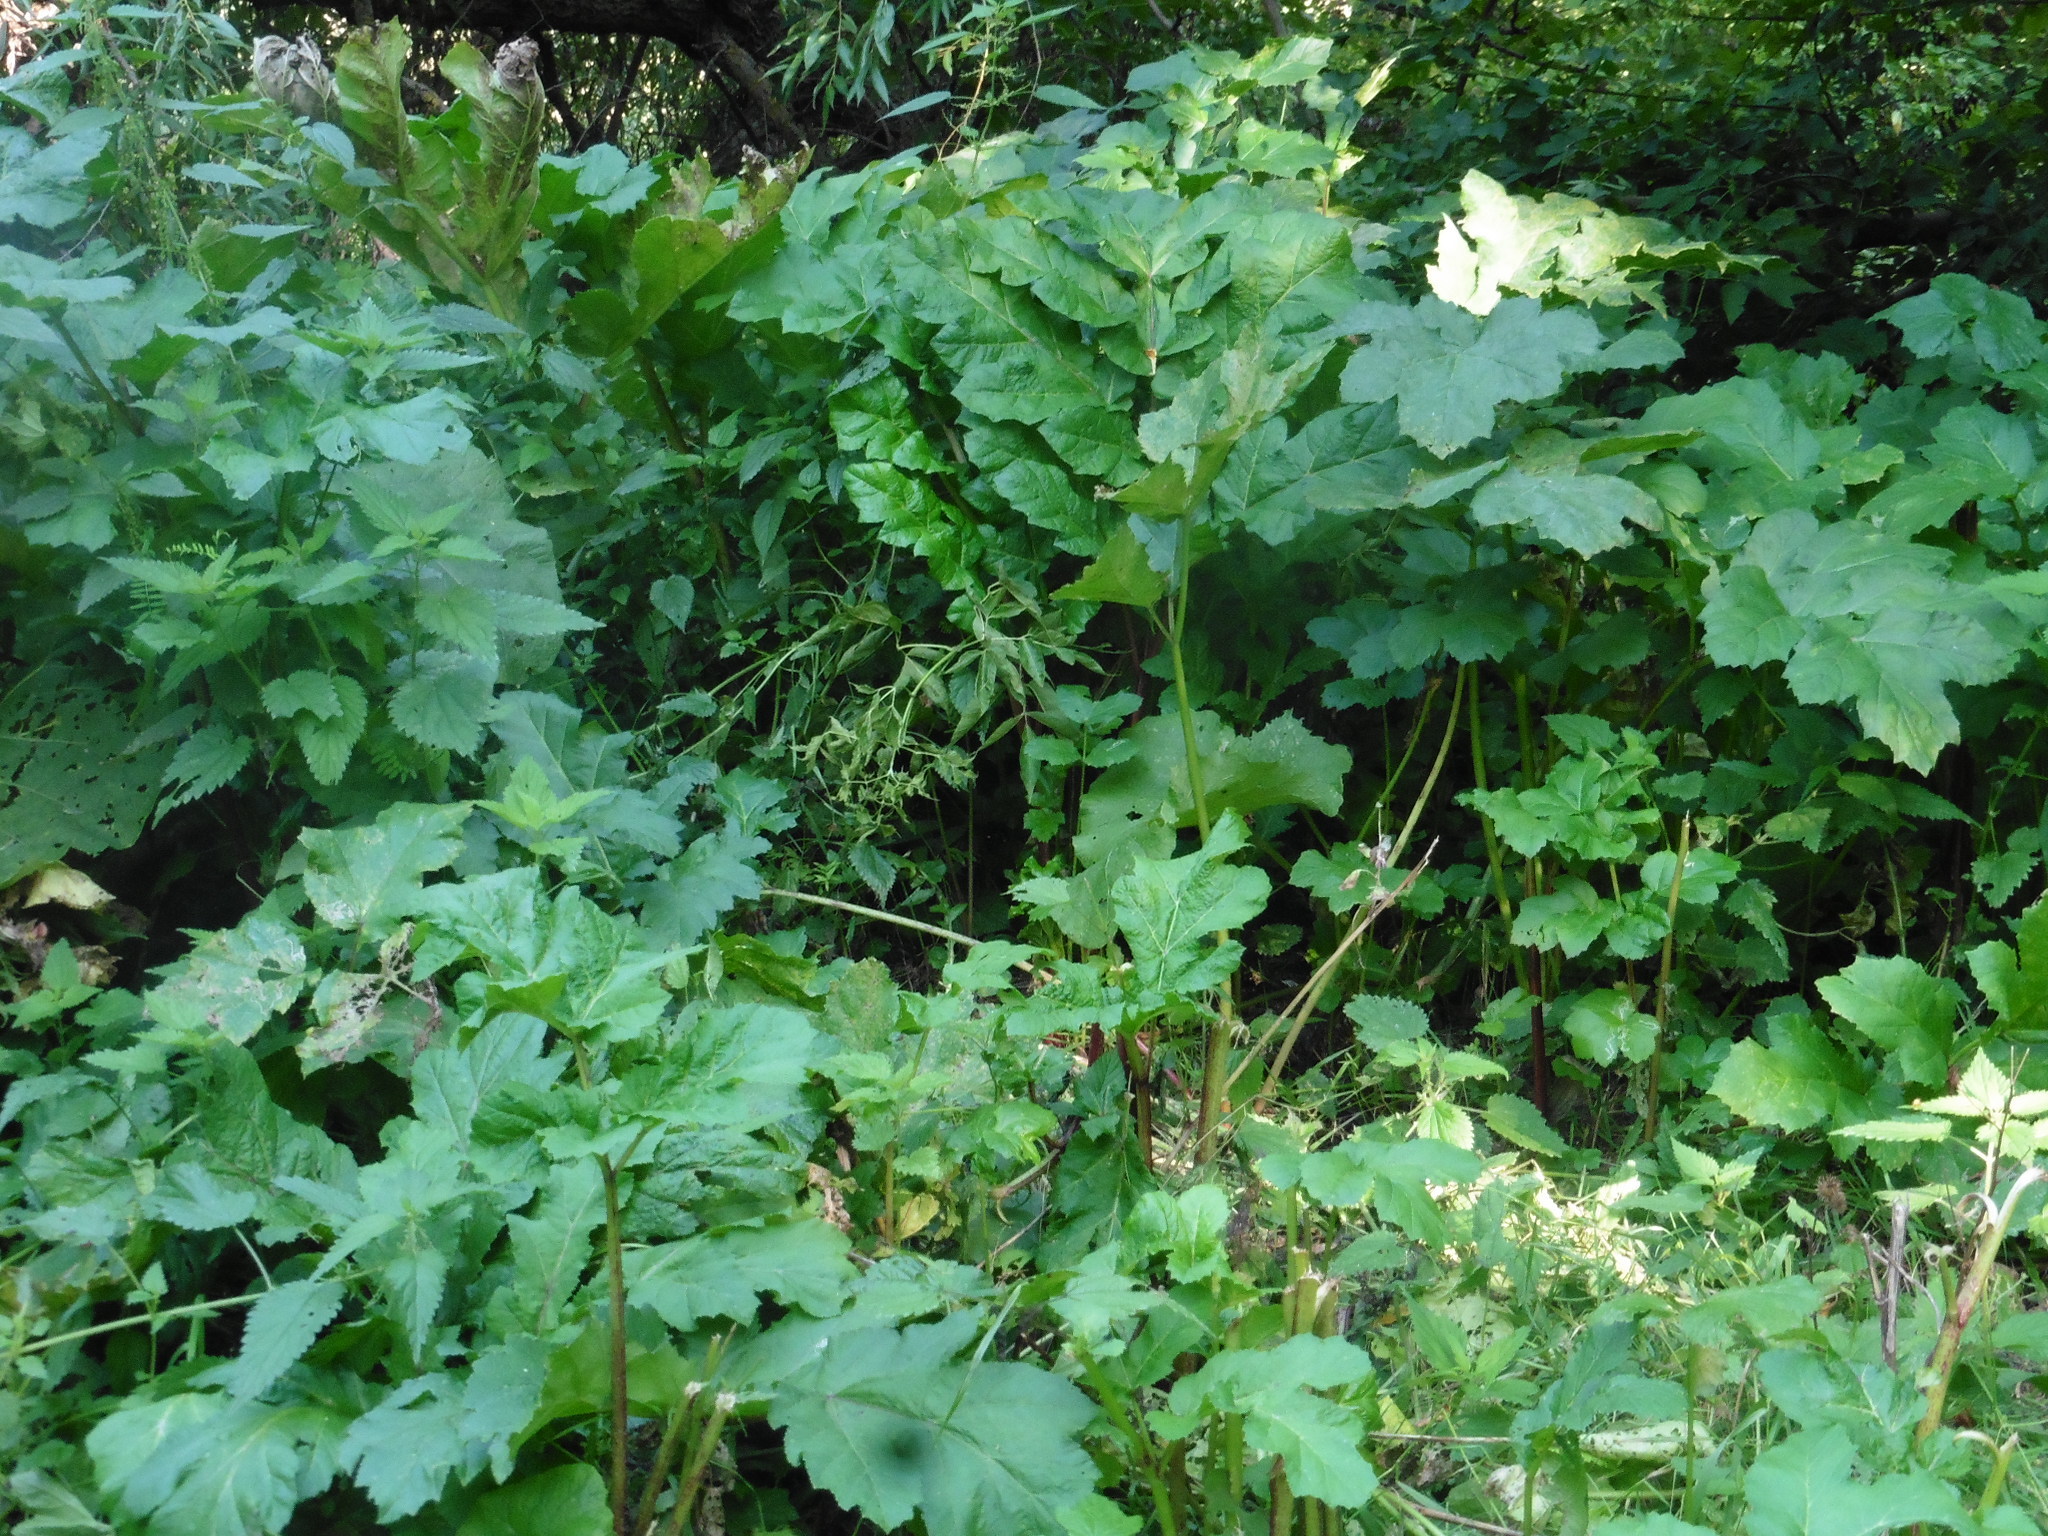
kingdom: Plantae
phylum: Tracheophyta
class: Magnoliopsida
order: Apiales
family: Apiaceae
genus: Heracleum
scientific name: Heracleum sosnowskyi
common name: Sosnowsky's hogweed
